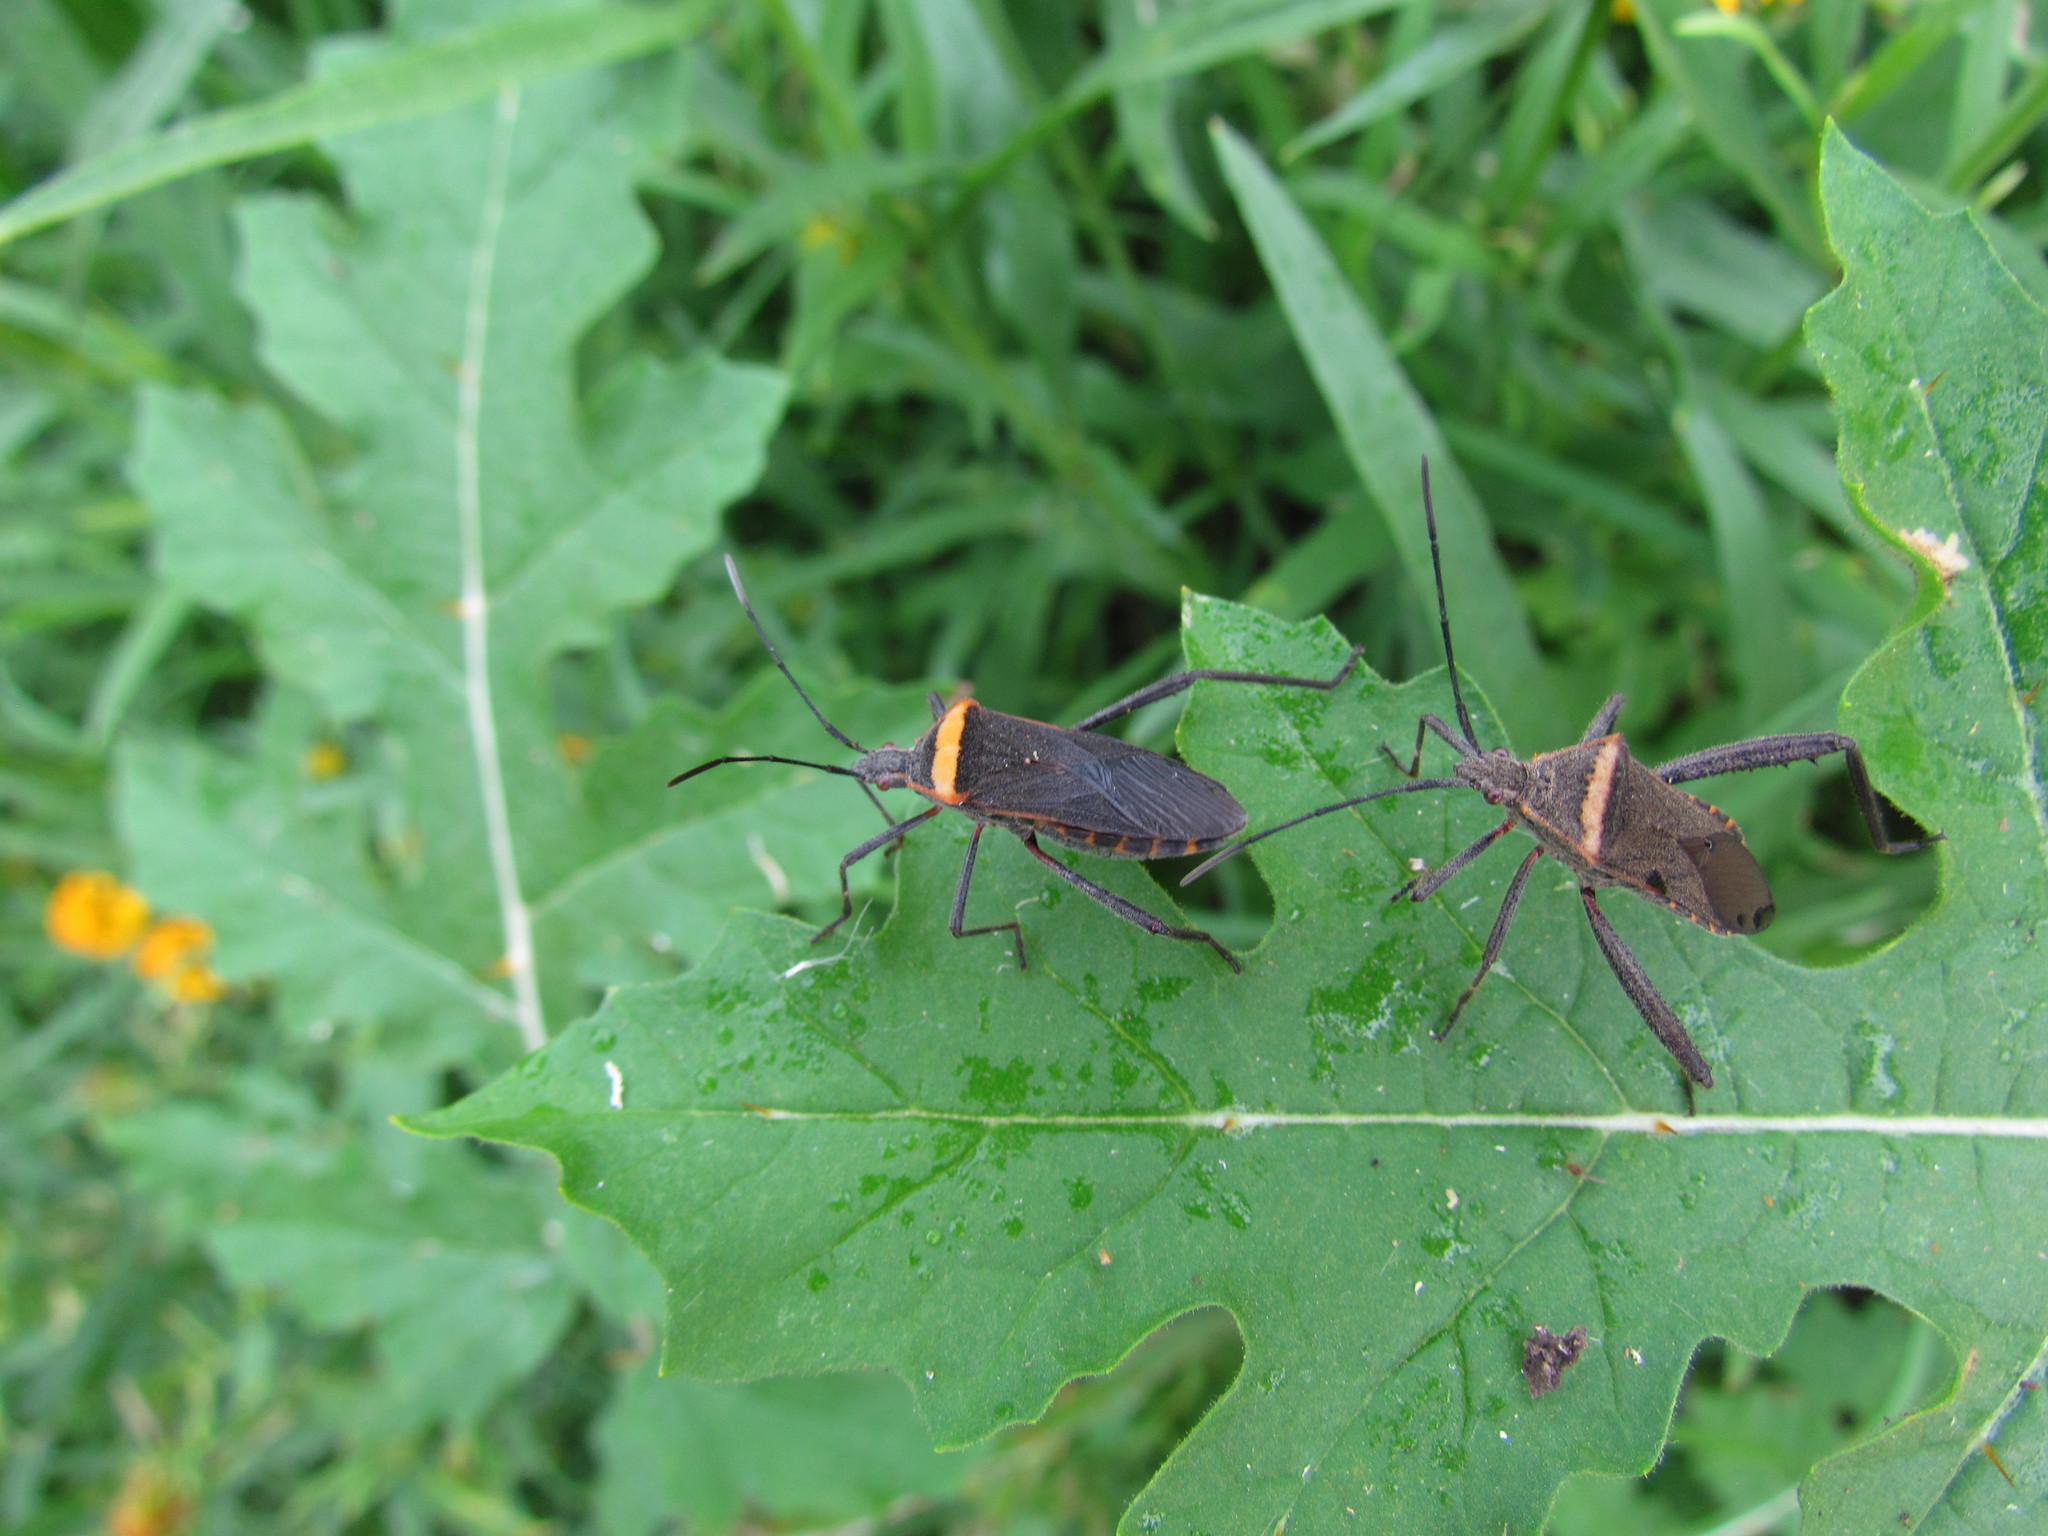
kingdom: Animalia
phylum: Arthropoda
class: Insecta
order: Hemiptera
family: Coreidae
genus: Phthiacnemia
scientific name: Phthiacnemia picta
